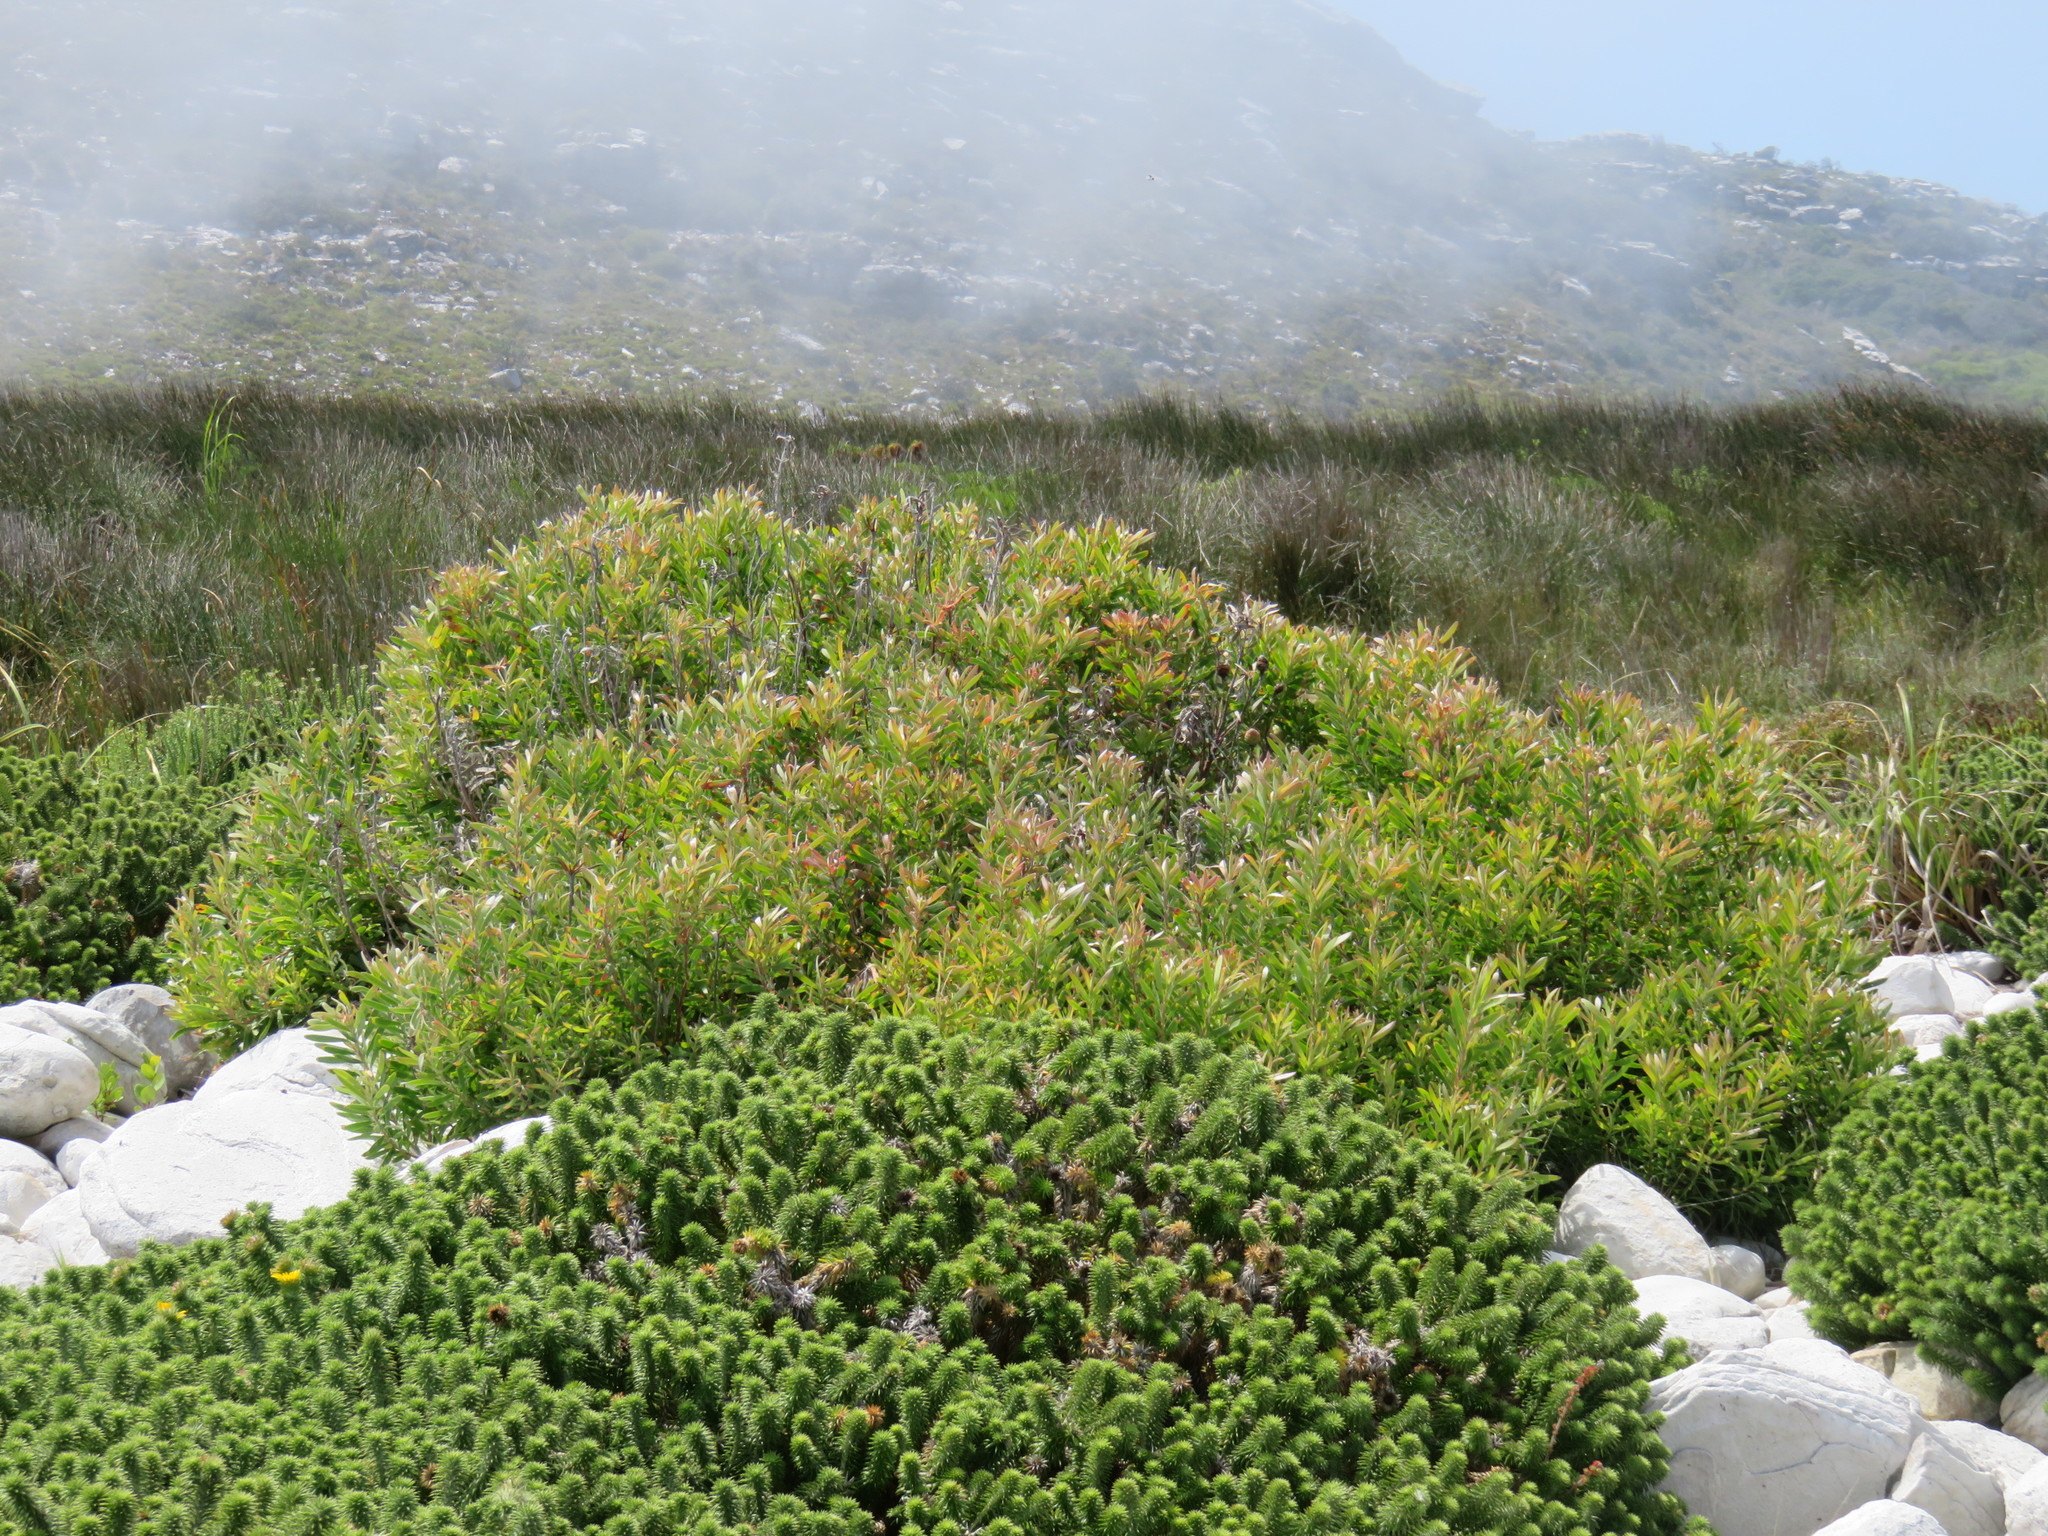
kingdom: Plantae
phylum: Tracheophyta
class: Magnoliopsida
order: Proteales
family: Proteaceae
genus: Leucadendron
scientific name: Leucadendron xanthoconus
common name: Sickle-leaf conebush
